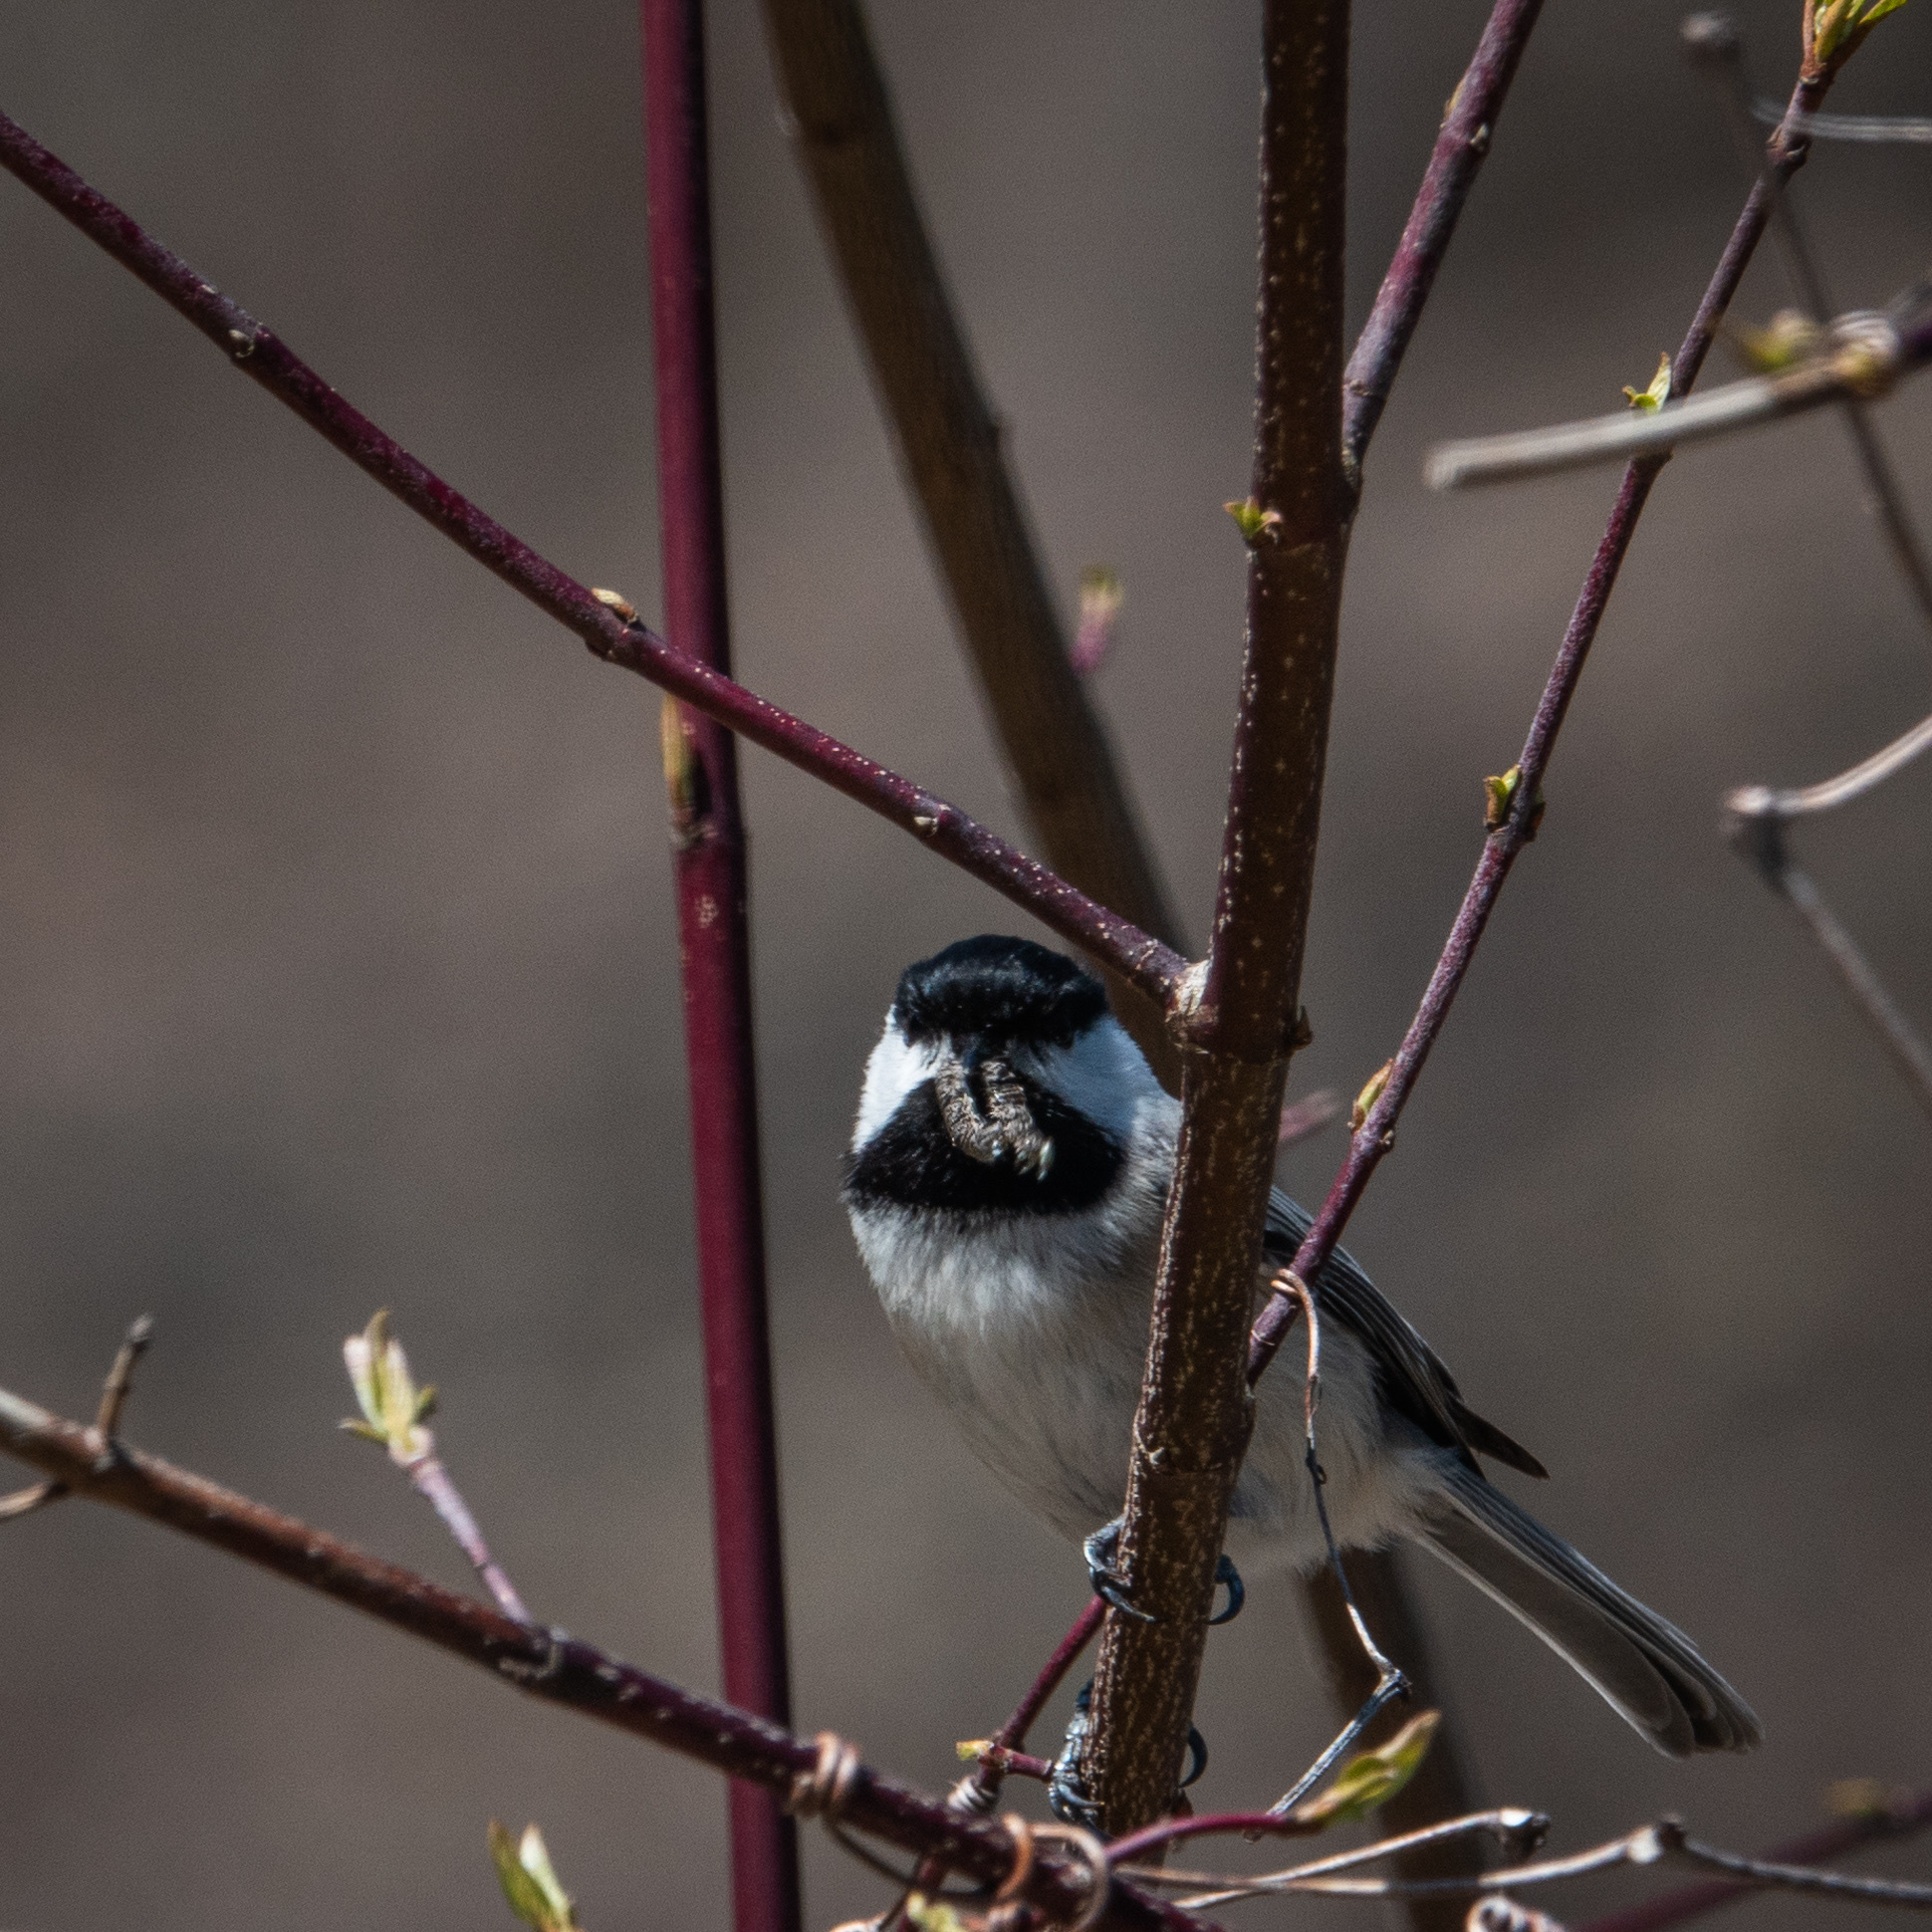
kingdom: Animalia
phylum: Chordata
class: Aves
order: Passeriformes
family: Paridae
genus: Poecile
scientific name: Poecile atricapillus
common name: Black-capped chickadee
